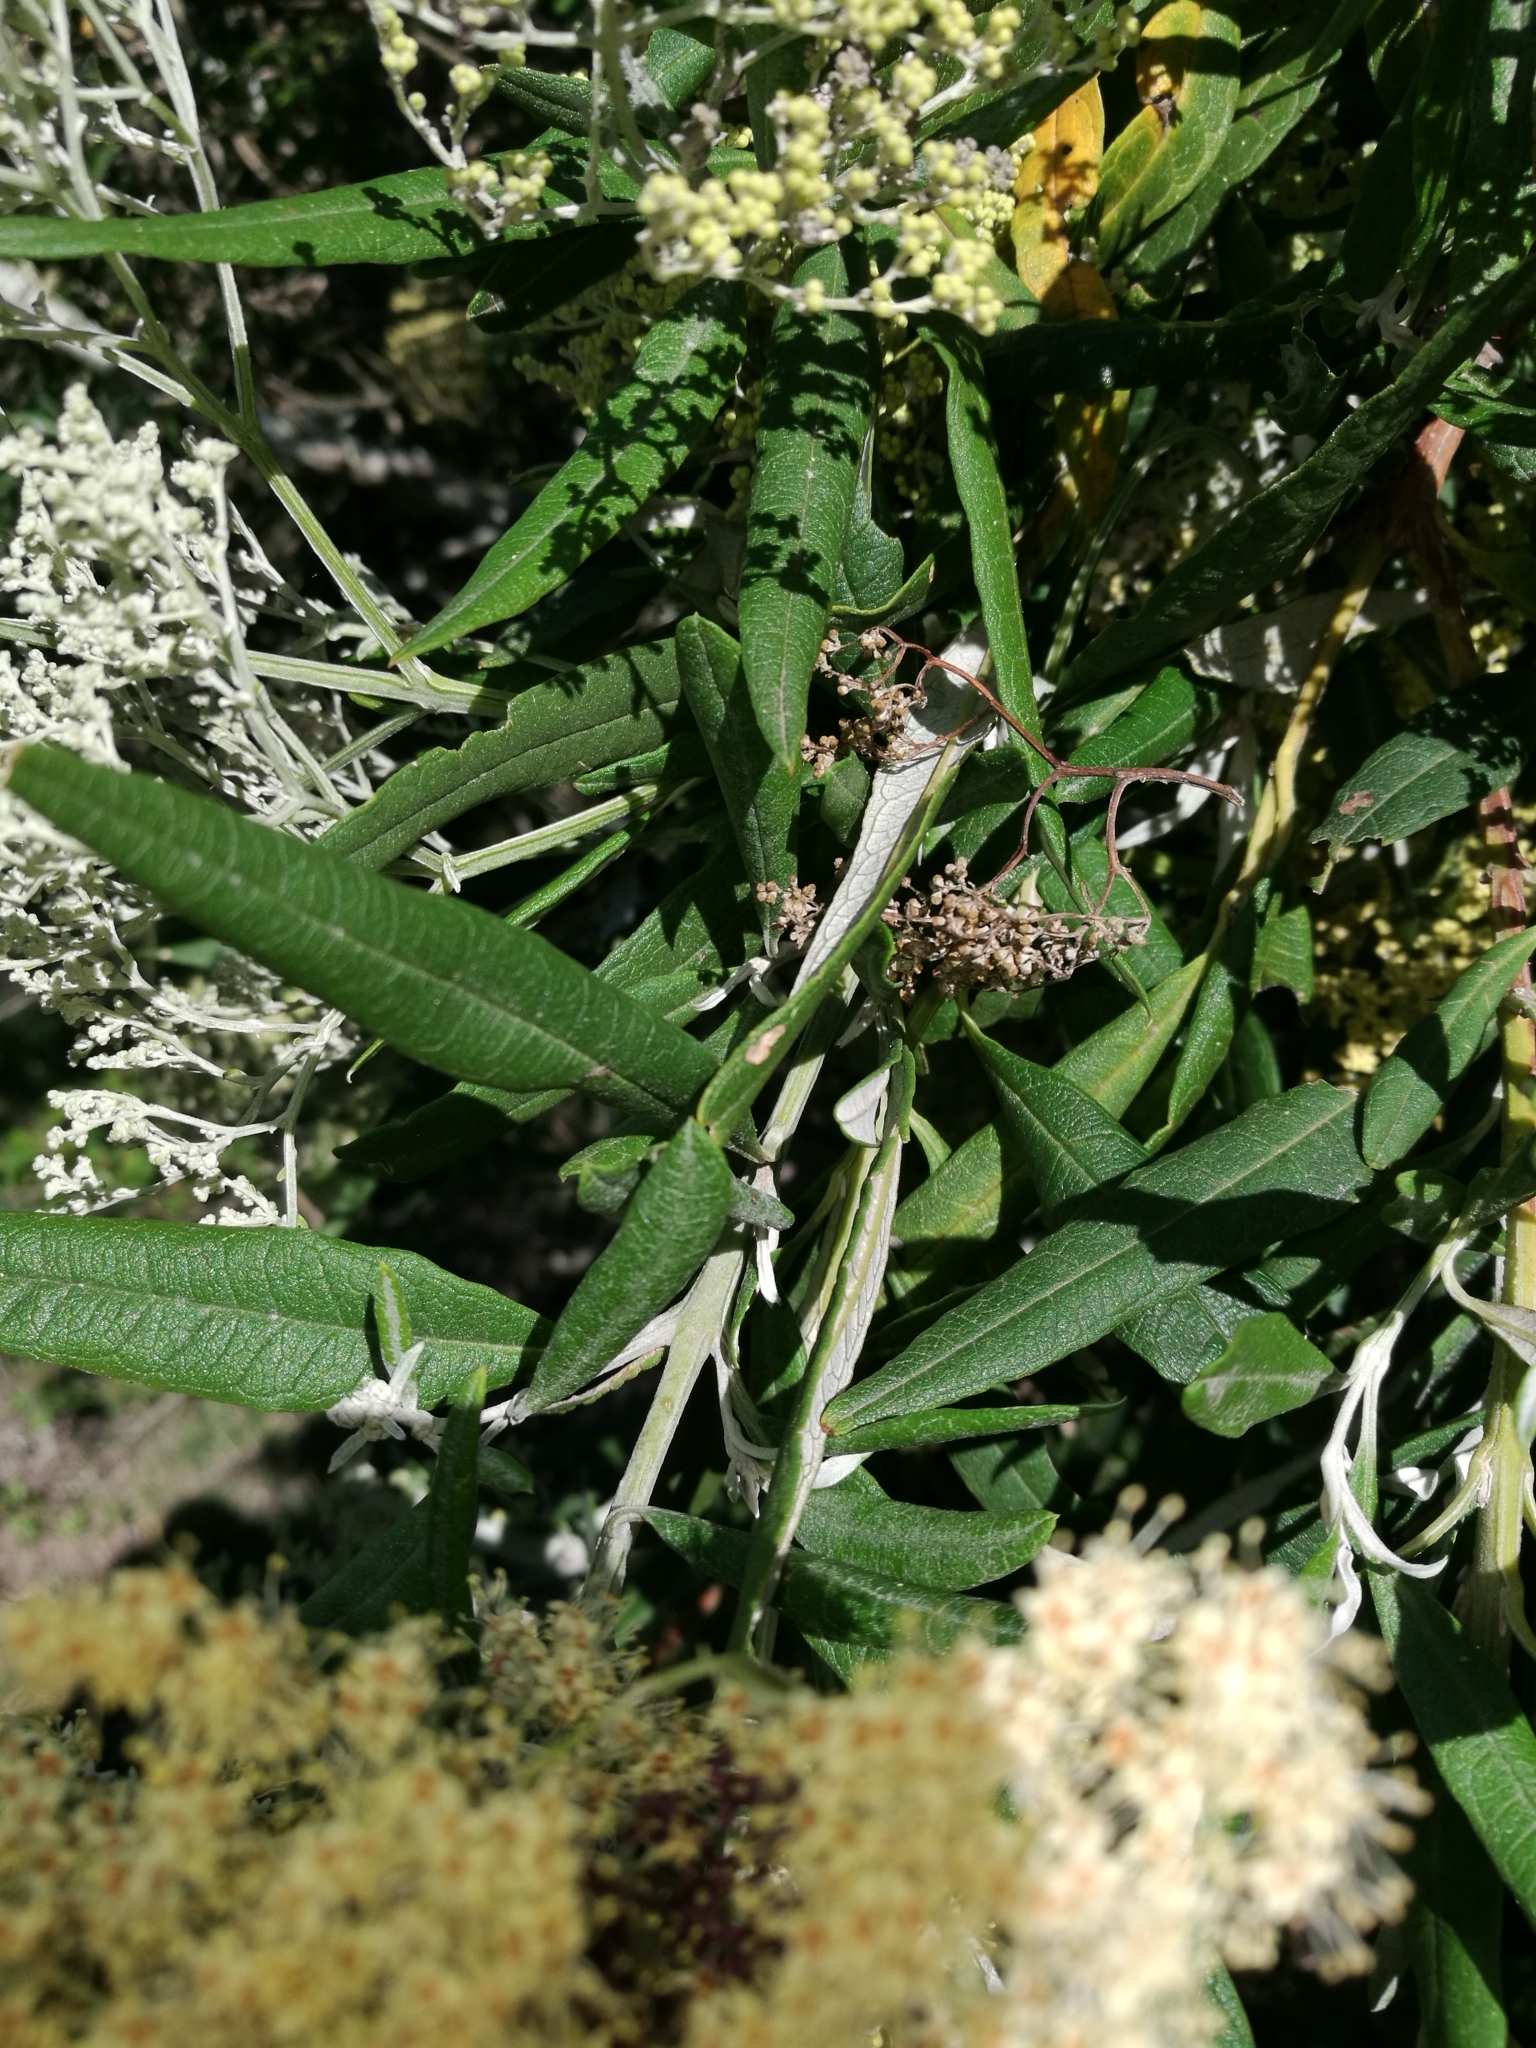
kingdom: Plantae
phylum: Tracheophyta
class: Magnoliopsida
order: Lamiales
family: Scrophulariaceae
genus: Buddleja
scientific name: Buddleja saligna
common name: False olive
